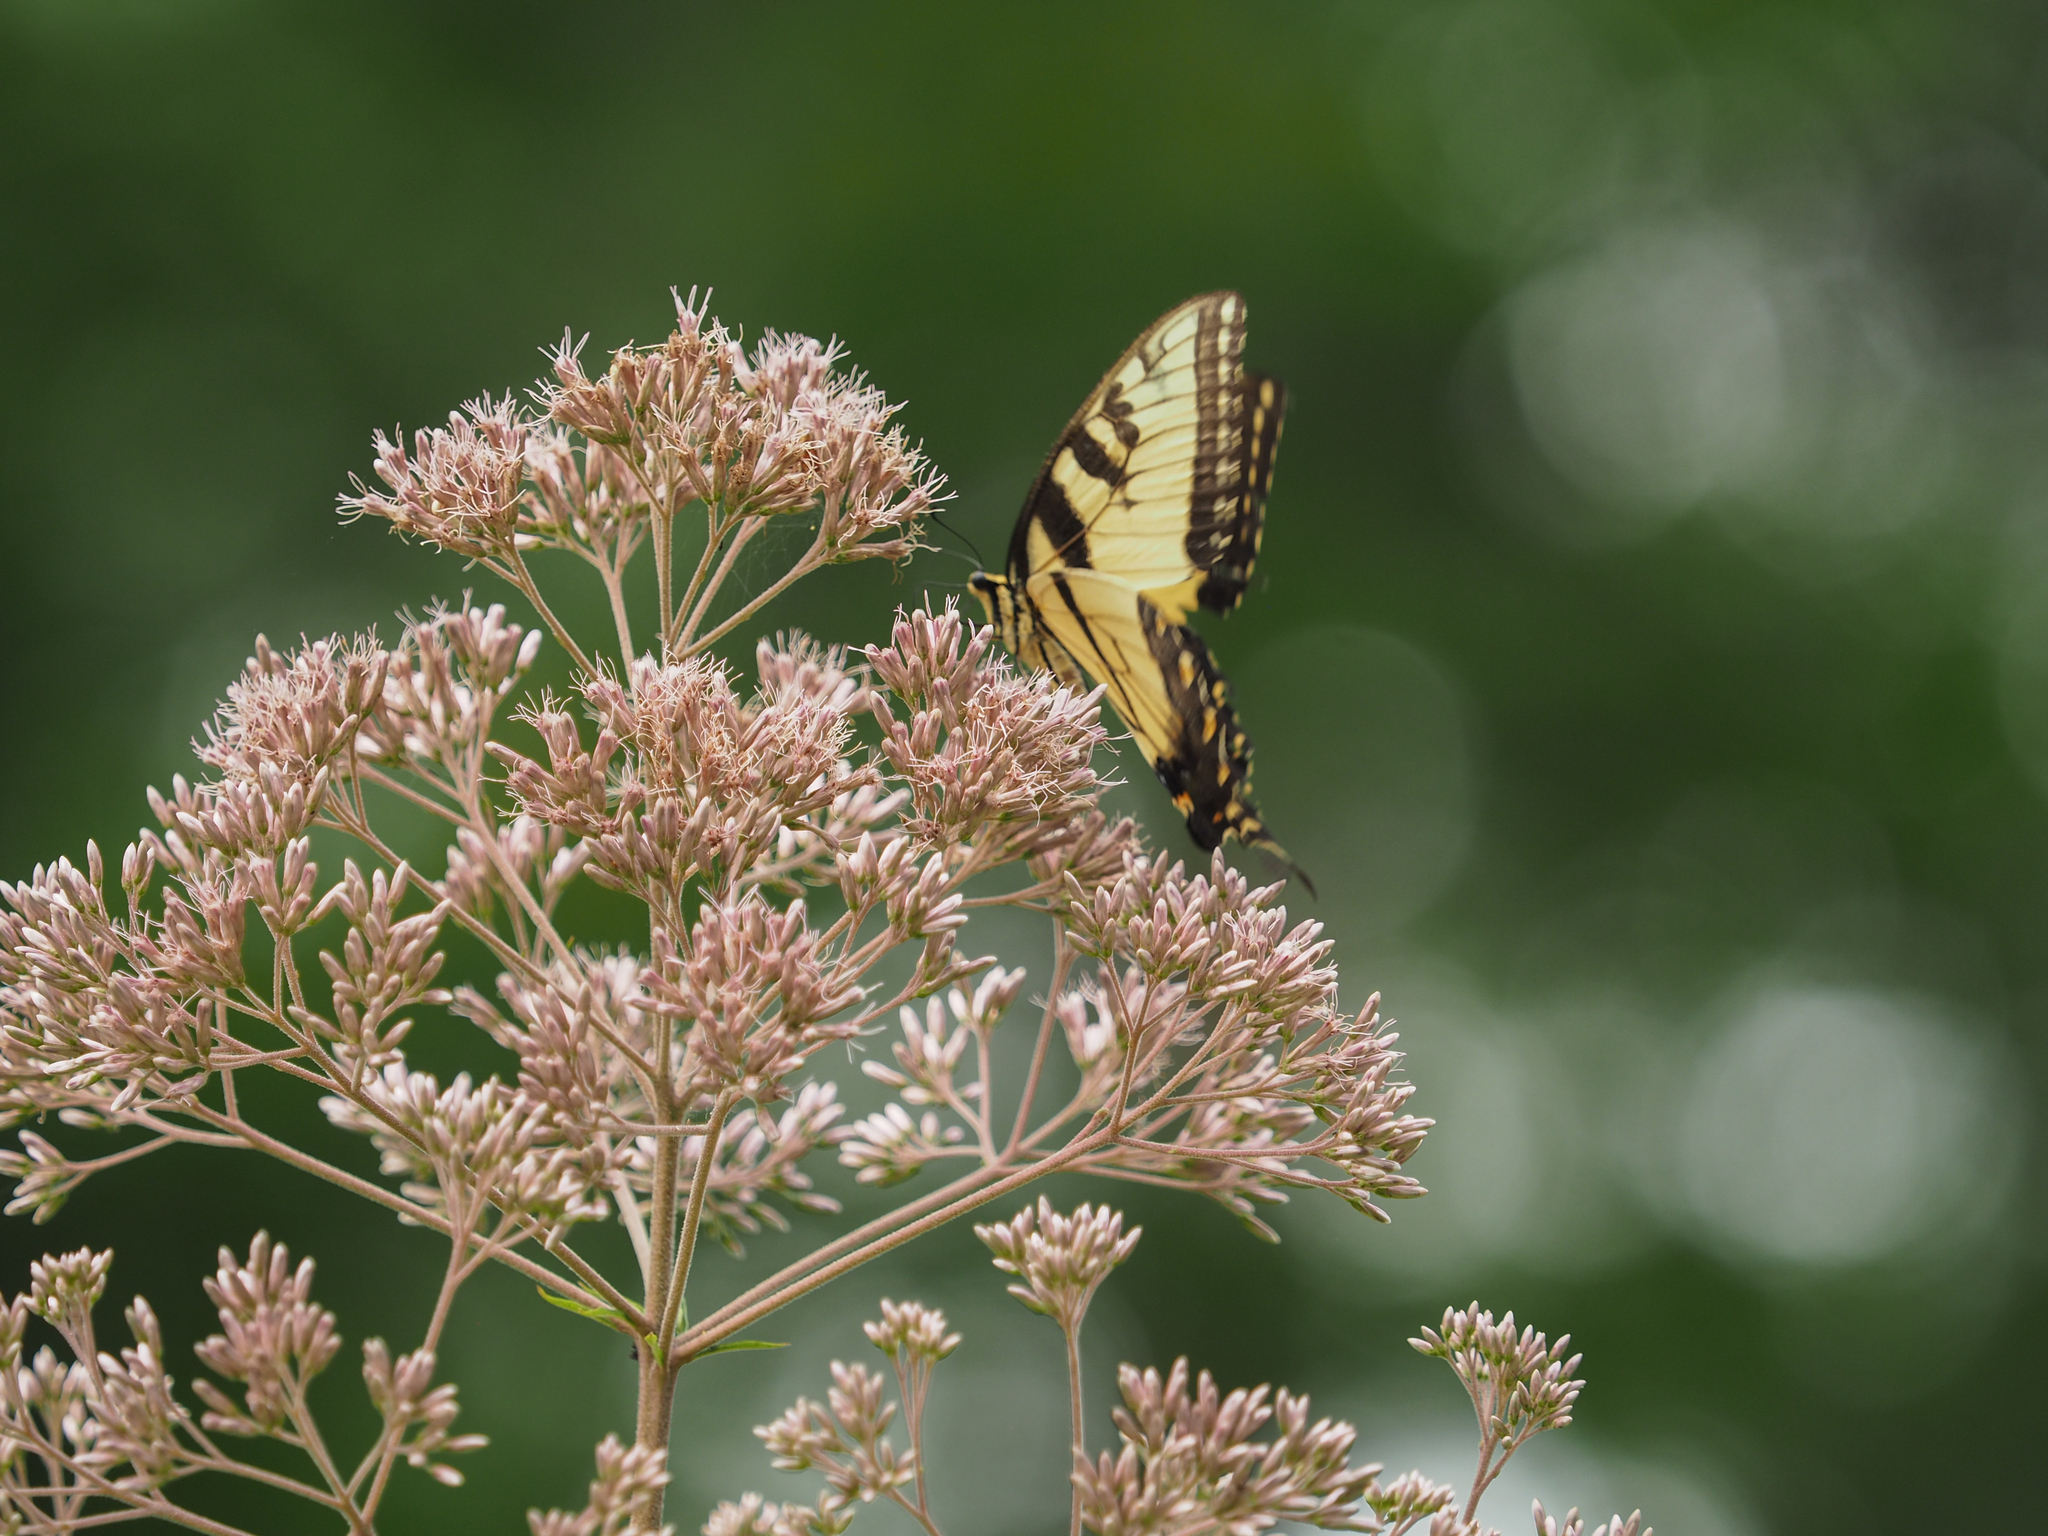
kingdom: Animalia
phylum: Arthropoda
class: Insecta
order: Lepidoptera
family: Papilionidae
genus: Papilio
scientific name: Papilio glaucus
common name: Tiger swallowtail
